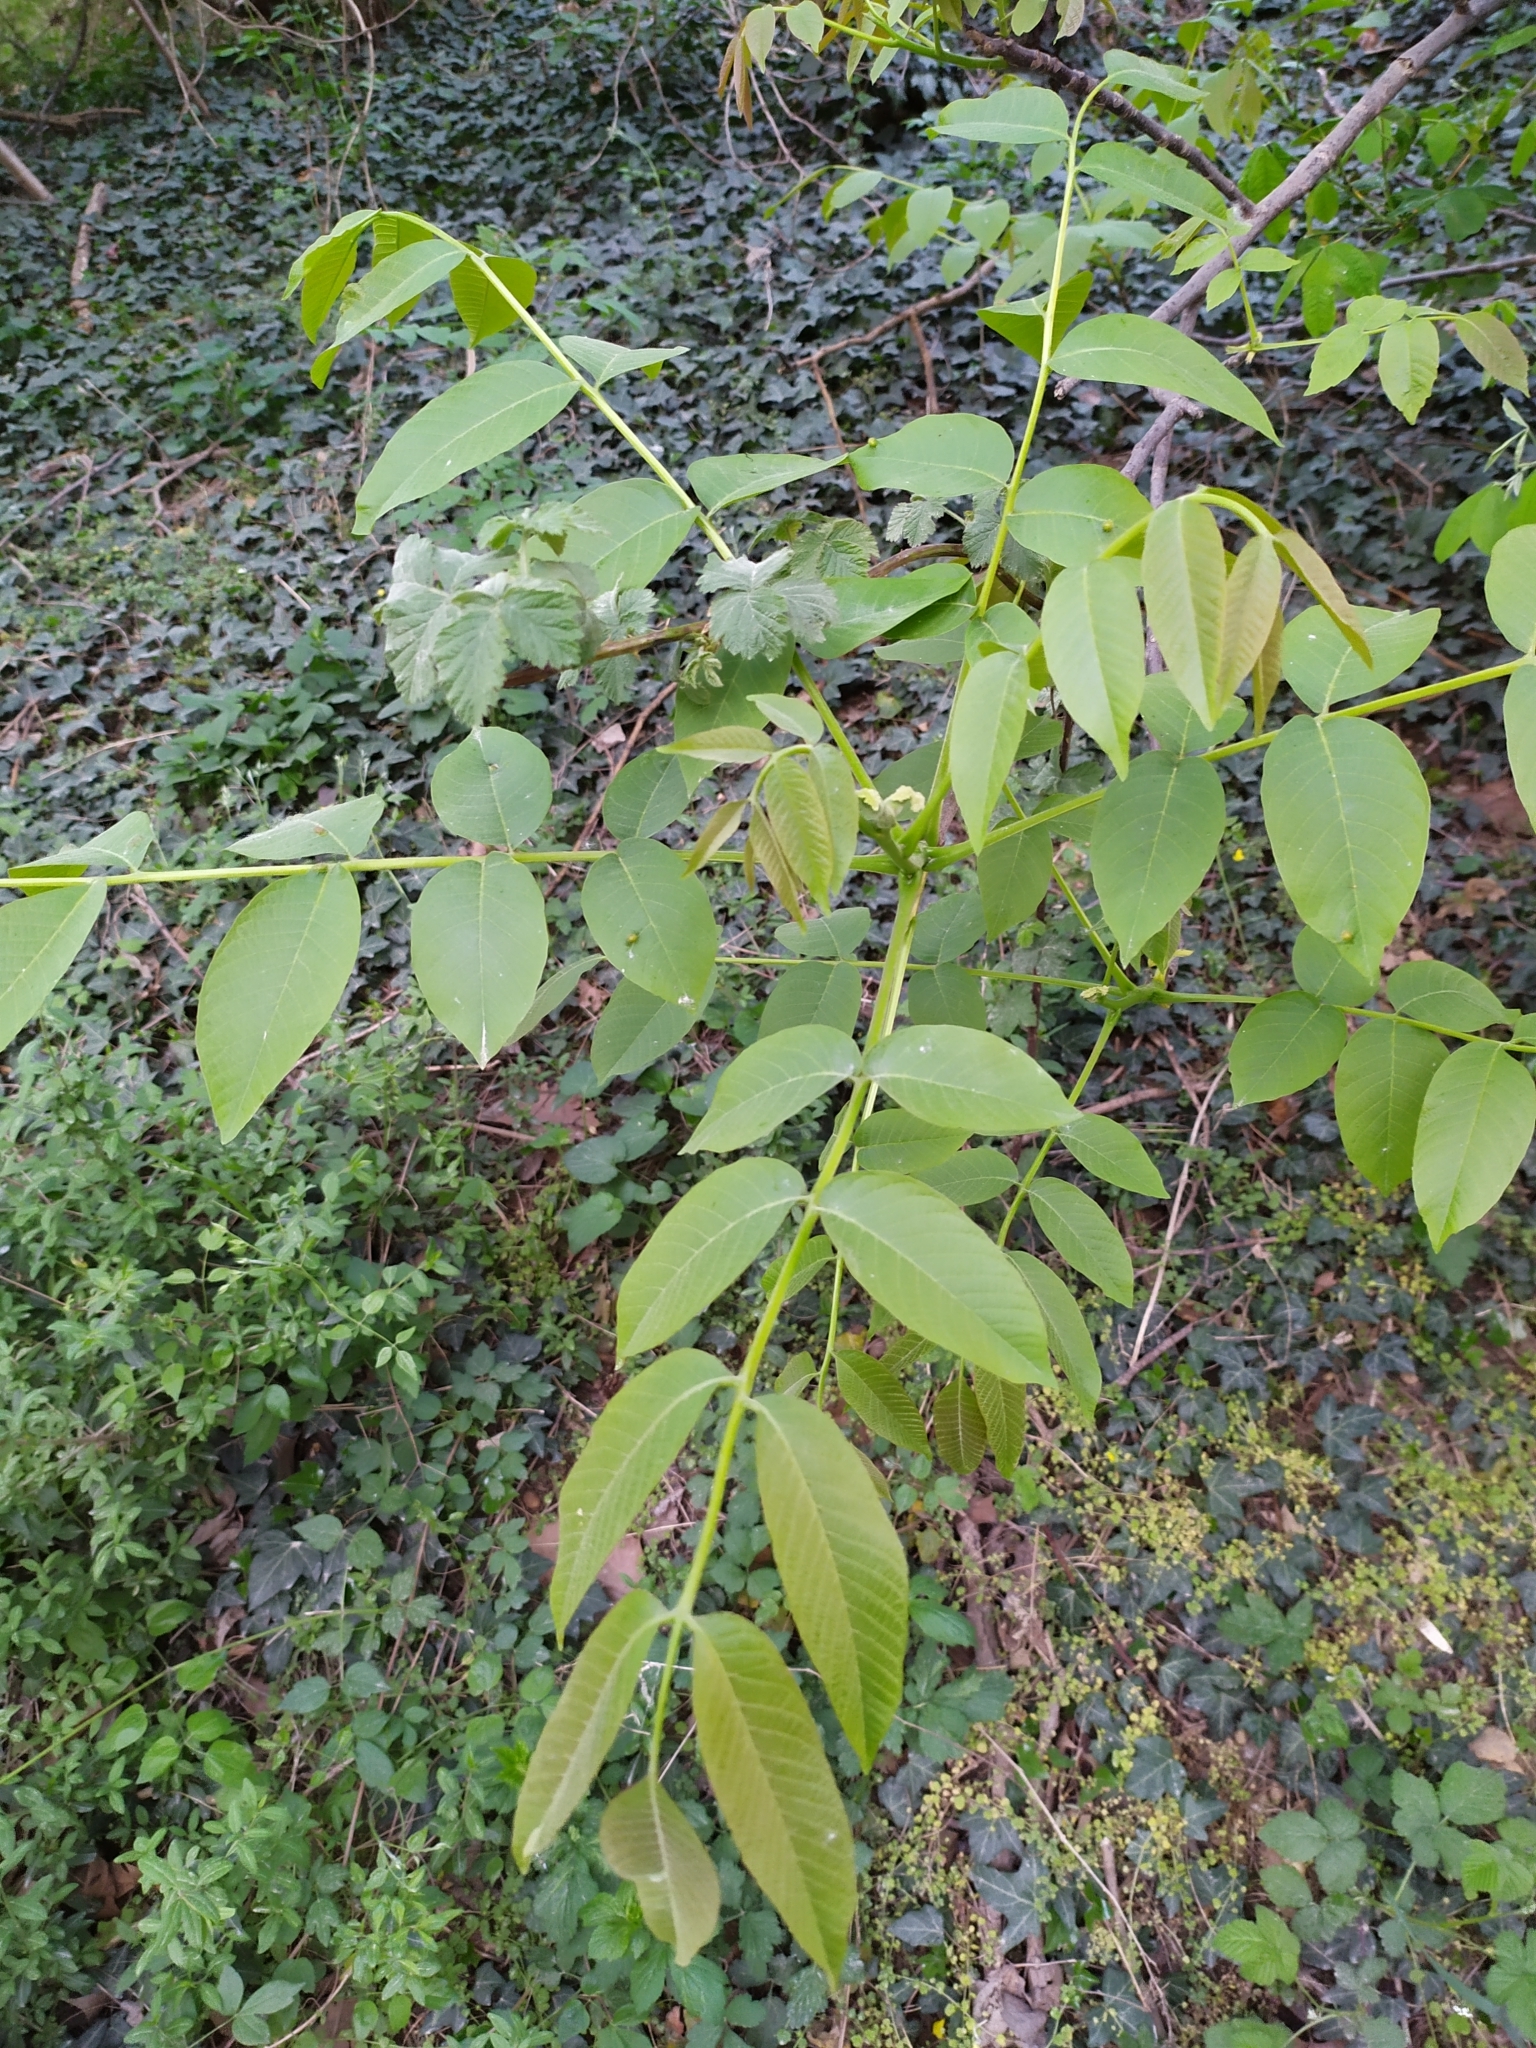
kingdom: Plantae
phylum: Tracheophyta
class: Magnoliopsida
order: Fagales
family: Juglandaceae
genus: Juglans
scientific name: Juglans regia
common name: Walnut
